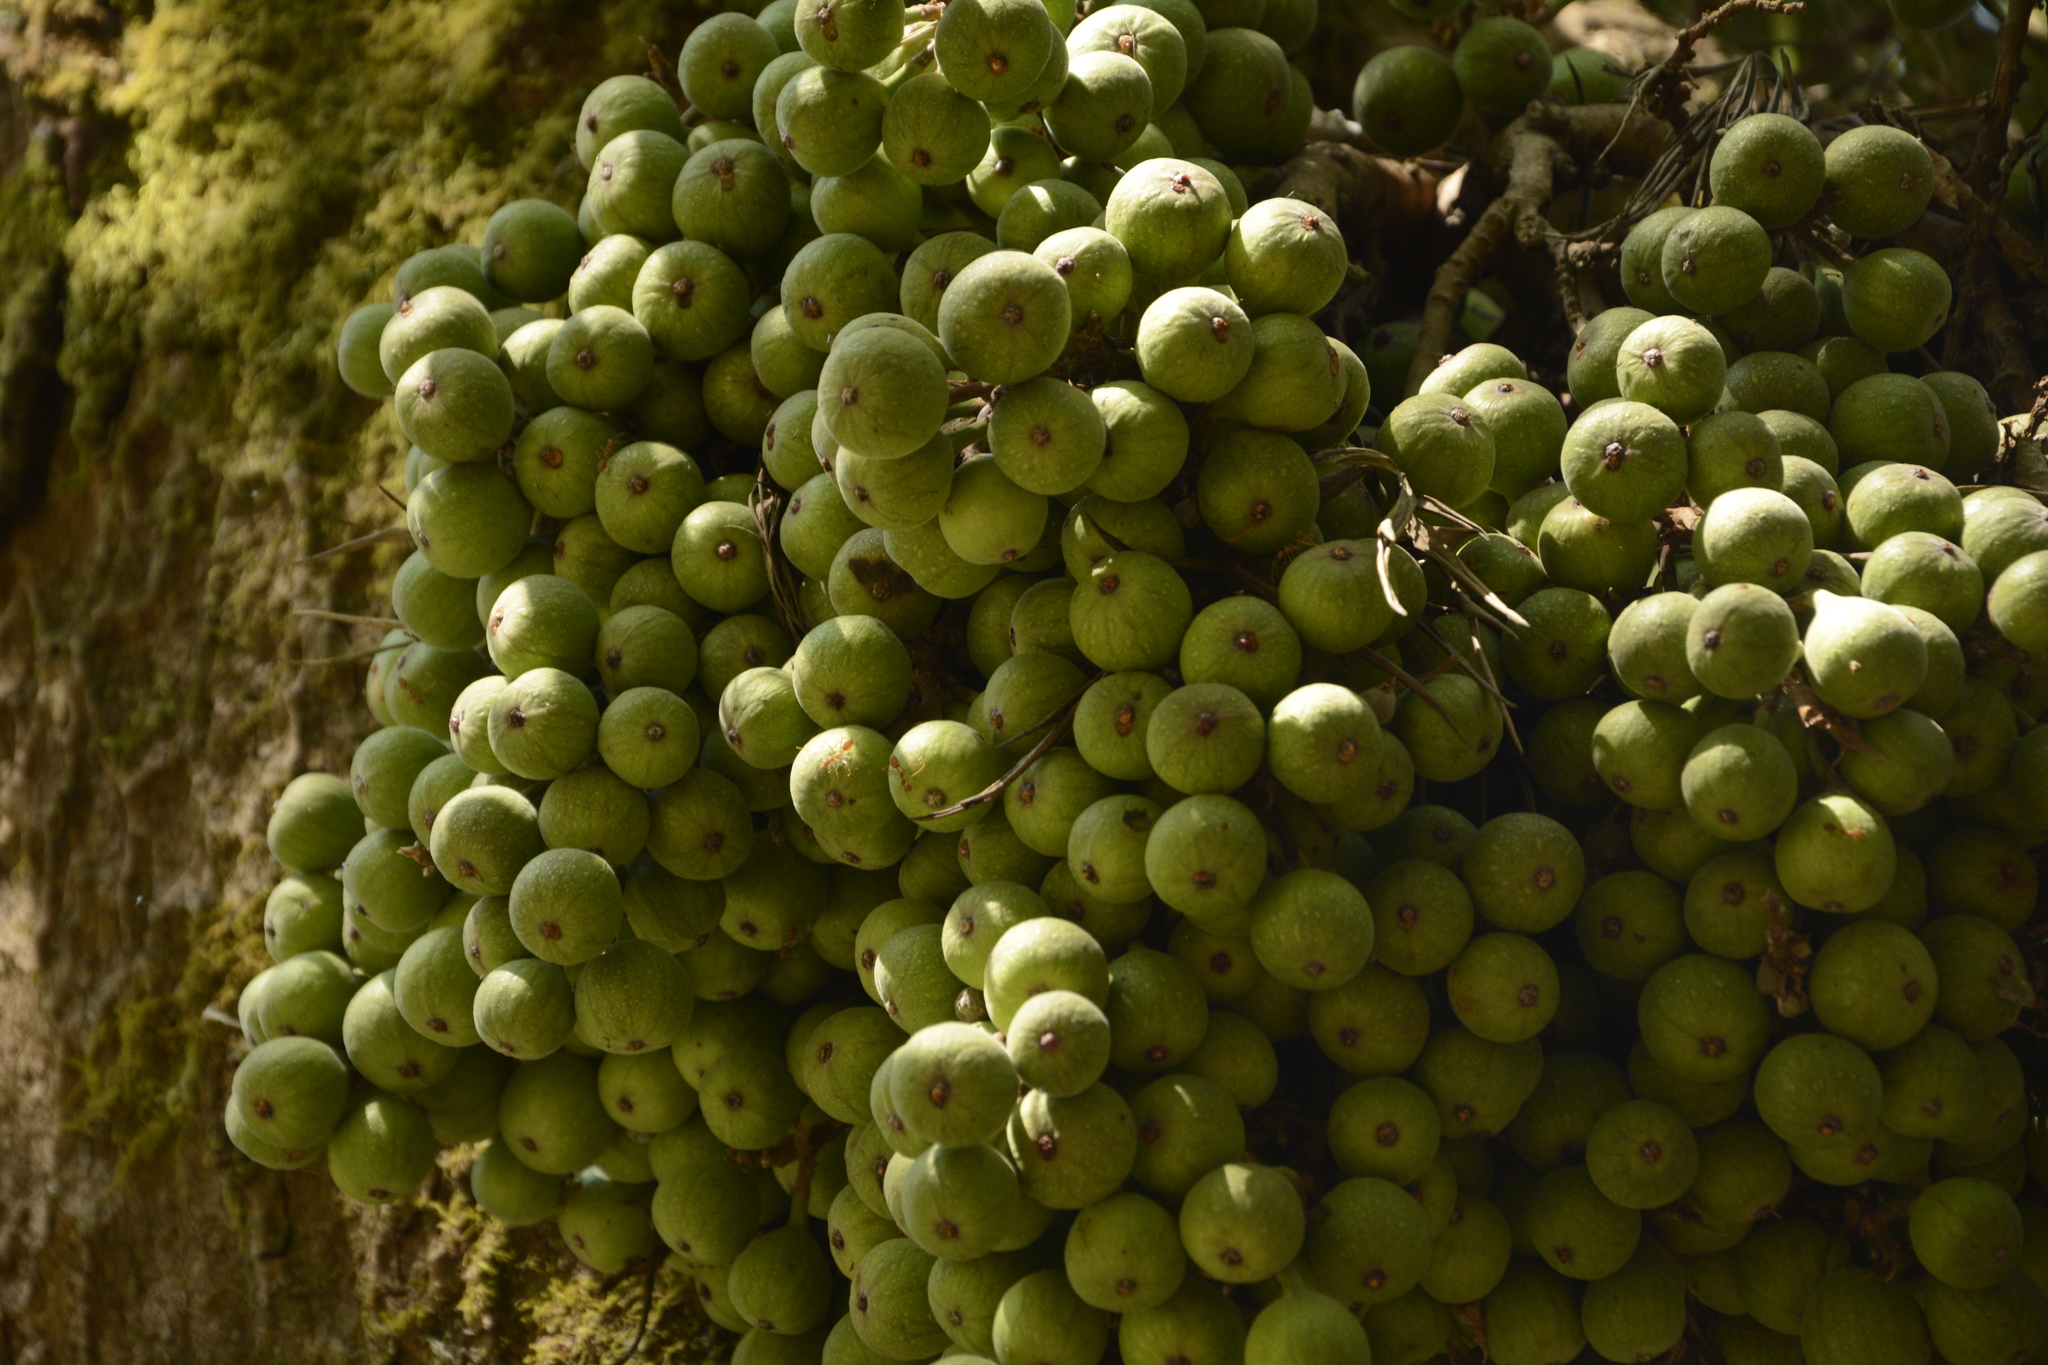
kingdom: Plantae
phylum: Tracheophyta
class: Magnoliopsida
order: Rosales
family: Moraceae
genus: Ficus
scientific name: Ficus racemosa
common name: Cluster fig
